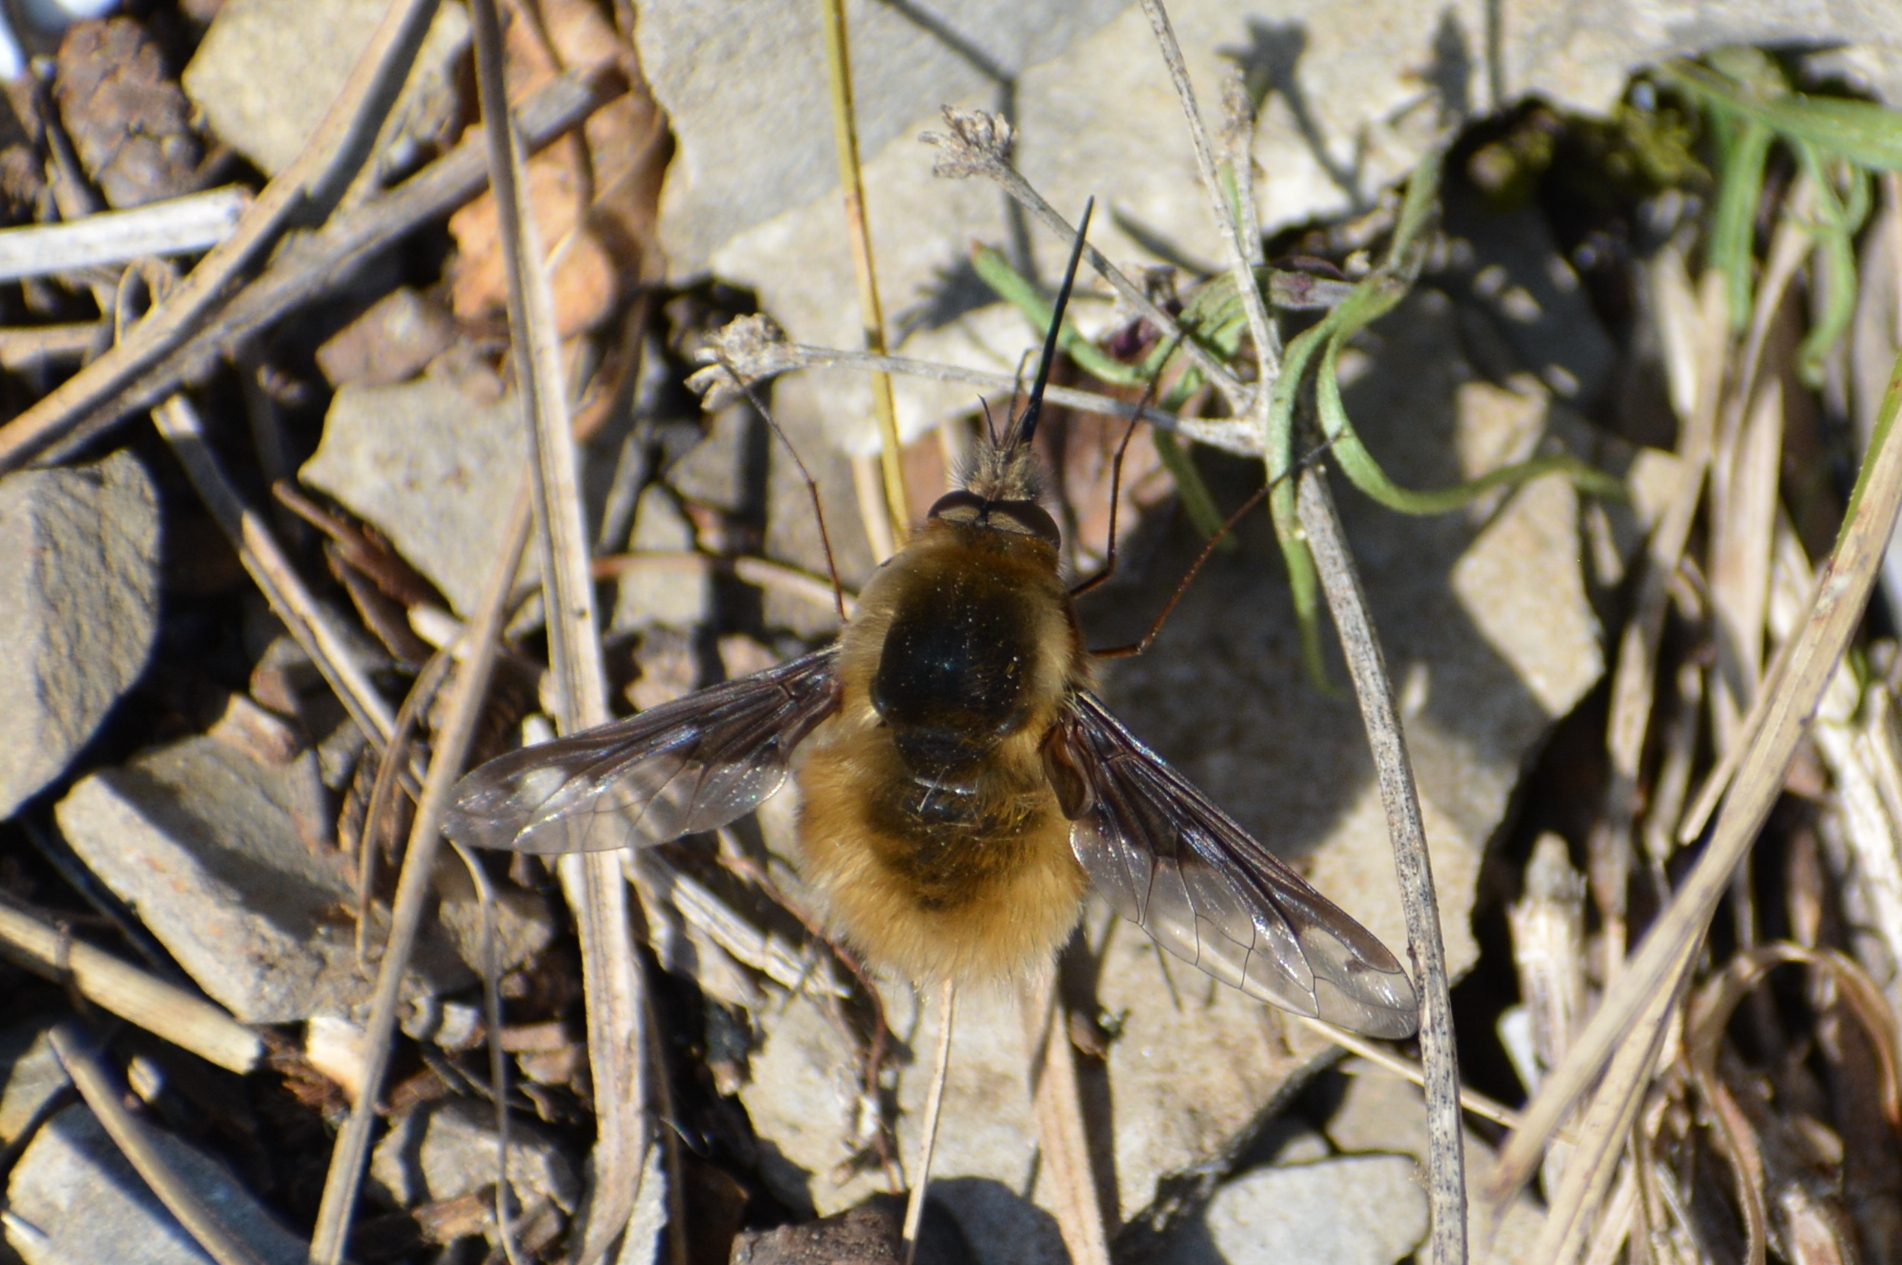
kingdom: Animalia
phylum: Arthropoda
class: Insecta
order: Diptera
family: Bombyliidae
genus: Bombylius
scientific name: Bombylius major
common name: Bee fly
